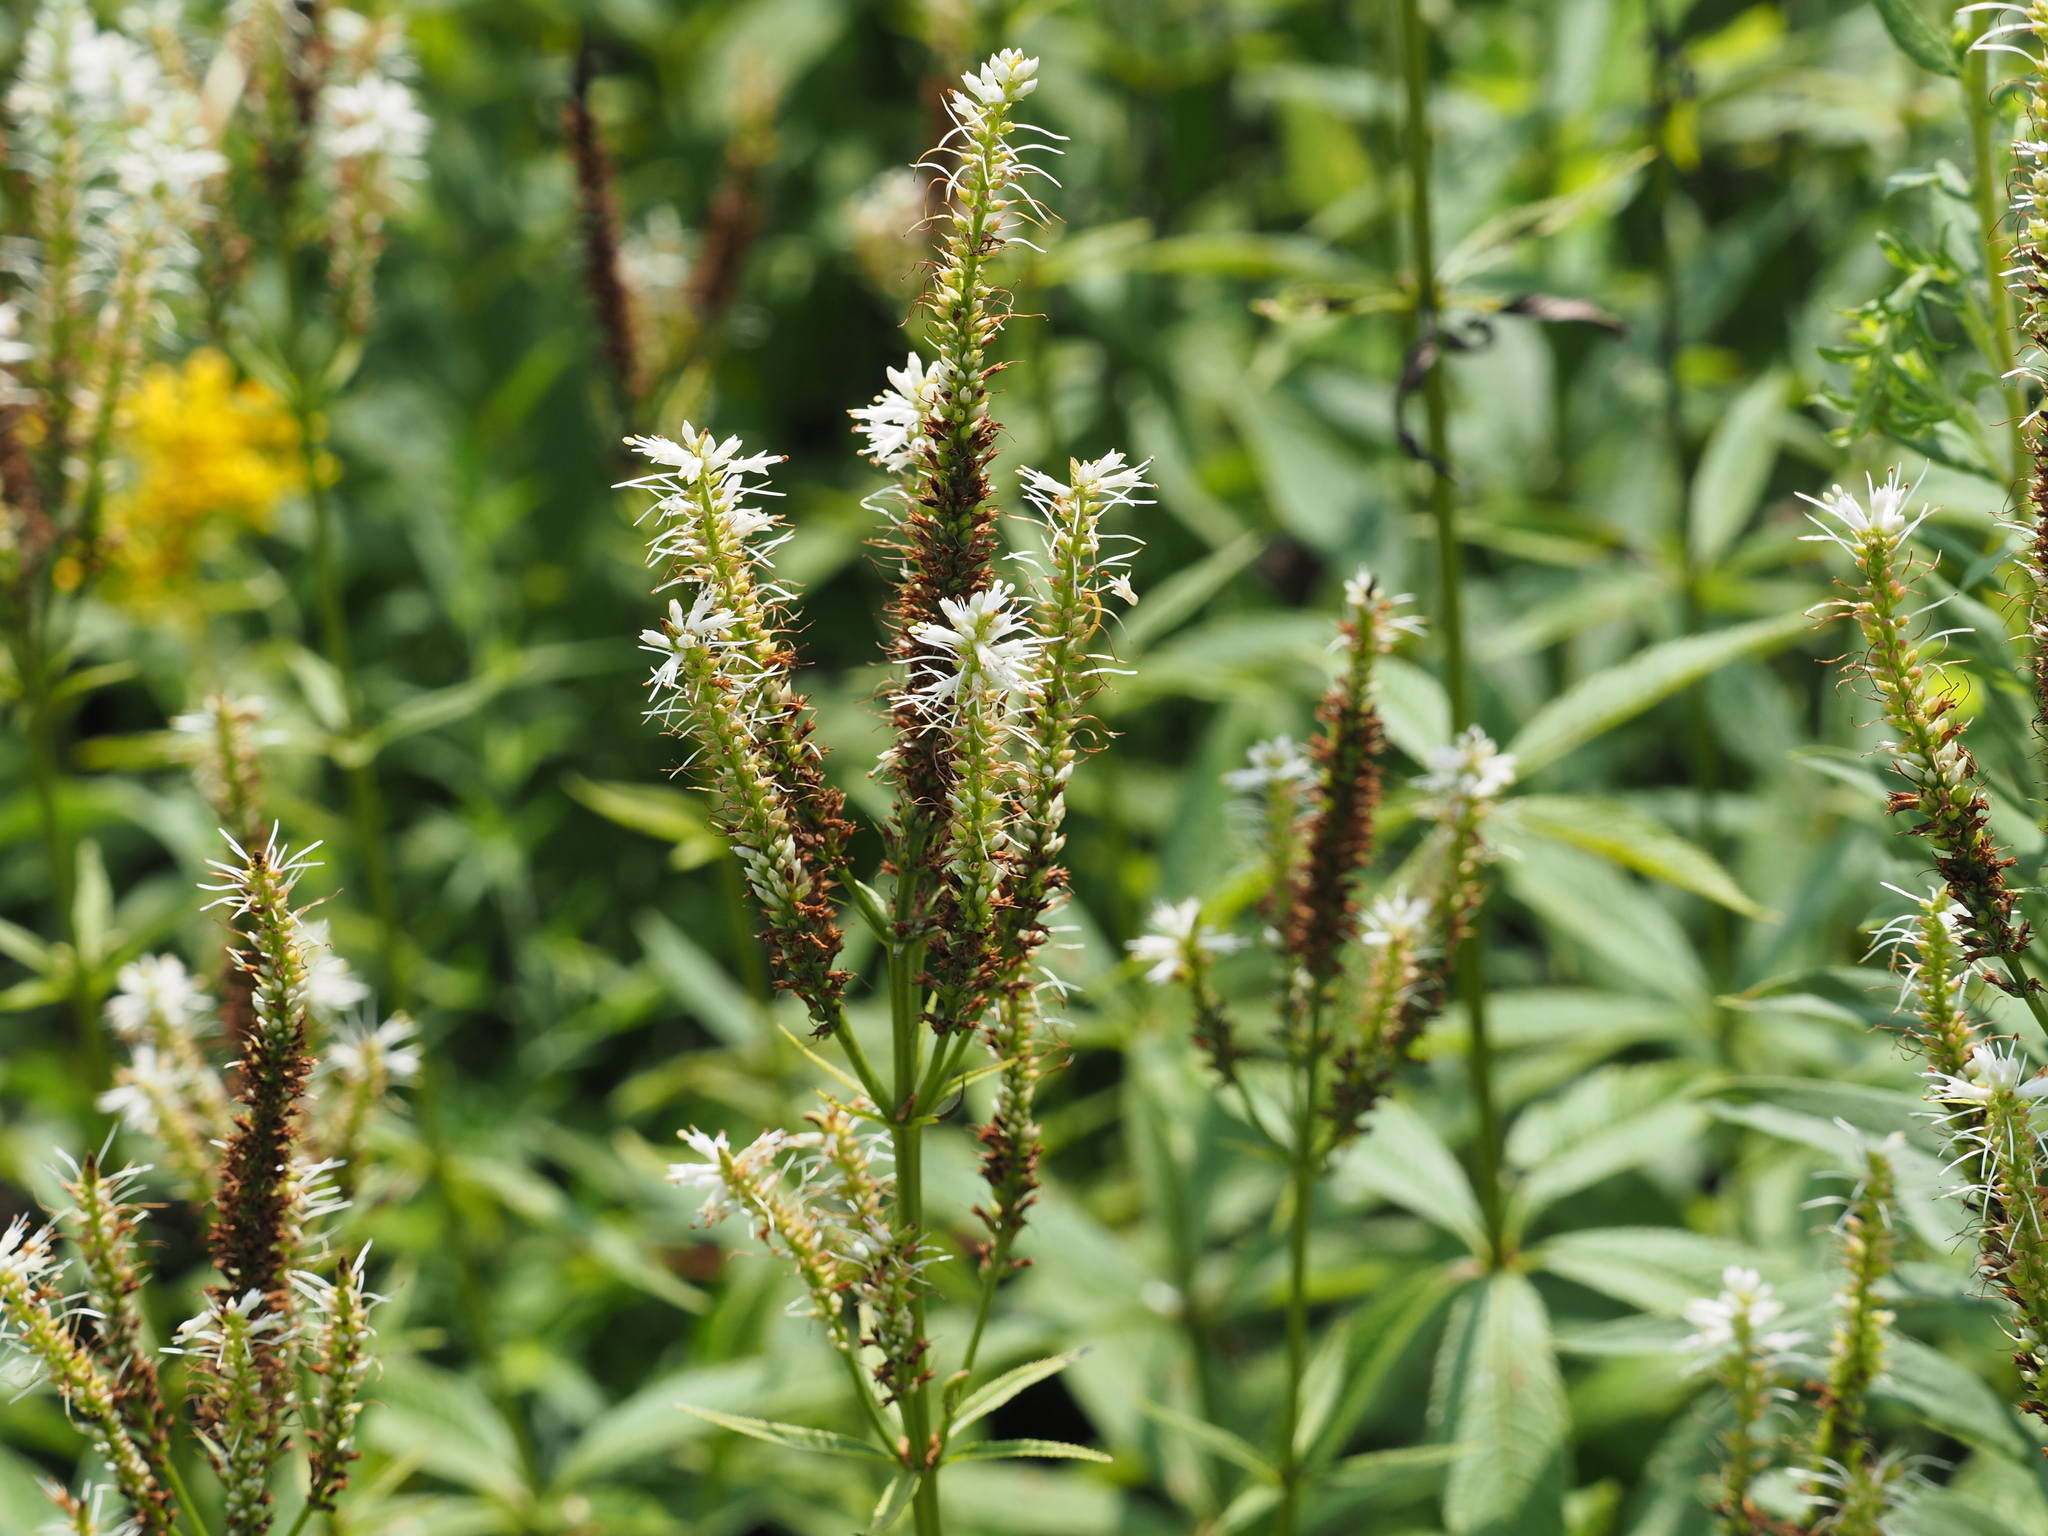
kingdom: Plantae
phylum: Tracheophyta
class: Magnoliopsida
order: Lamiales
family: Plantaginaceae
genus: Veronicastrum
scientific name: Veronicastrum virginicum
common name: Blackroot
